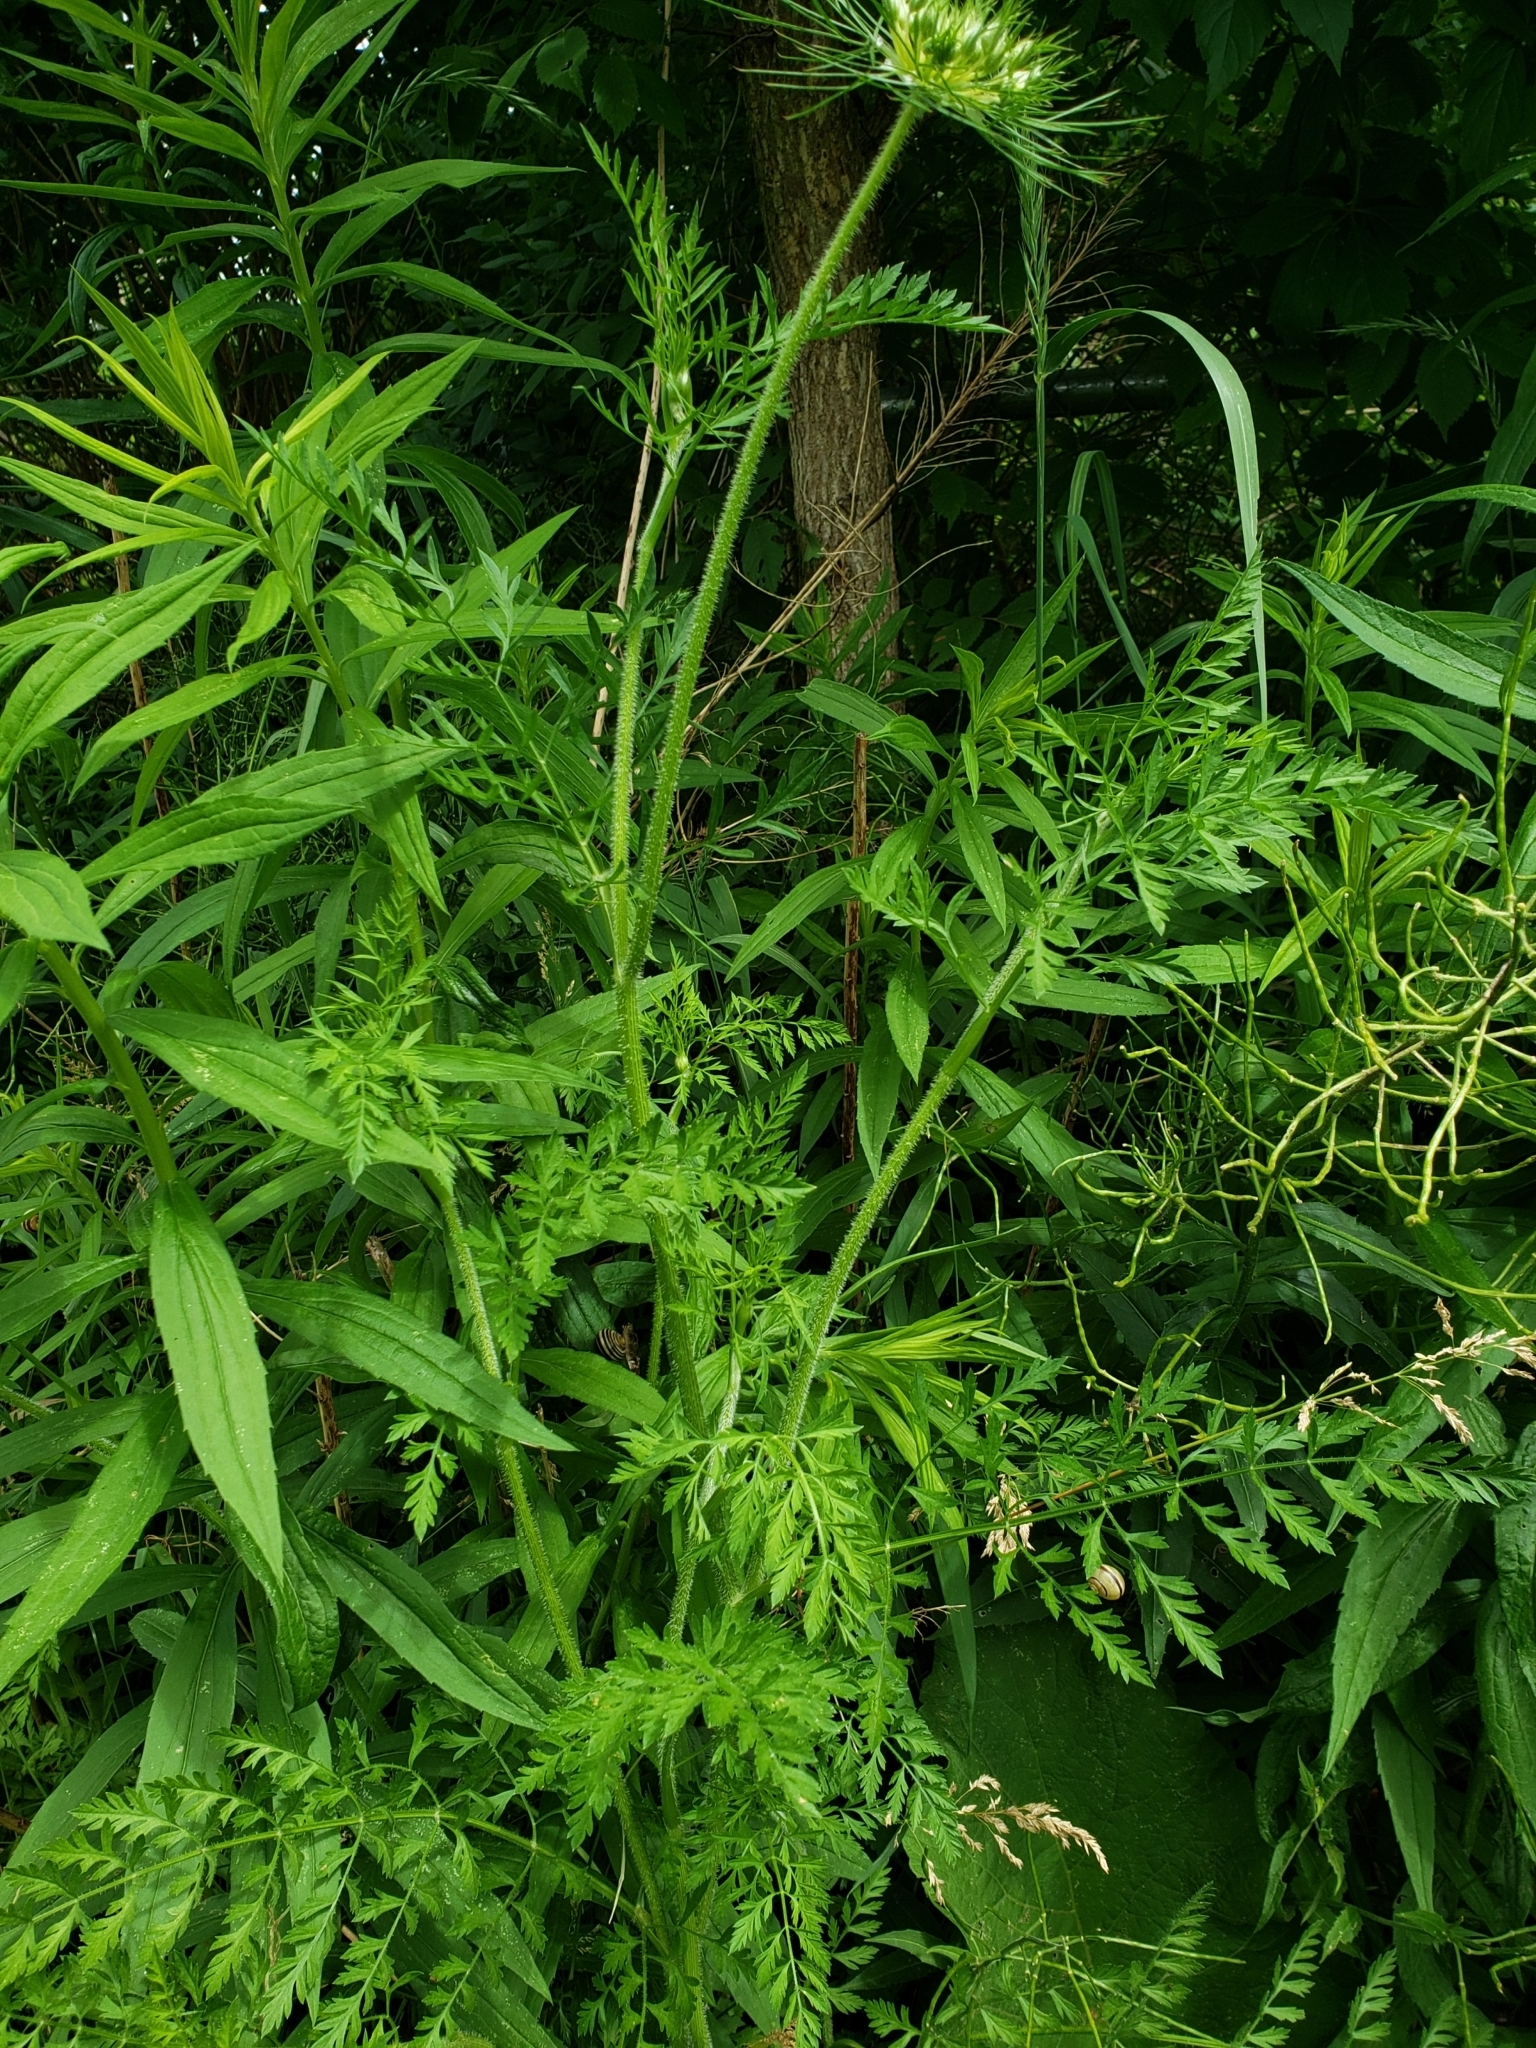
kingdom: Plantae
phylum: Tracheophyta
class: Magnoliopsida
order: Apiales
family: Apiaceae
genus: Daucus
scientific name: Daucus carota
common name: Wild carrot
